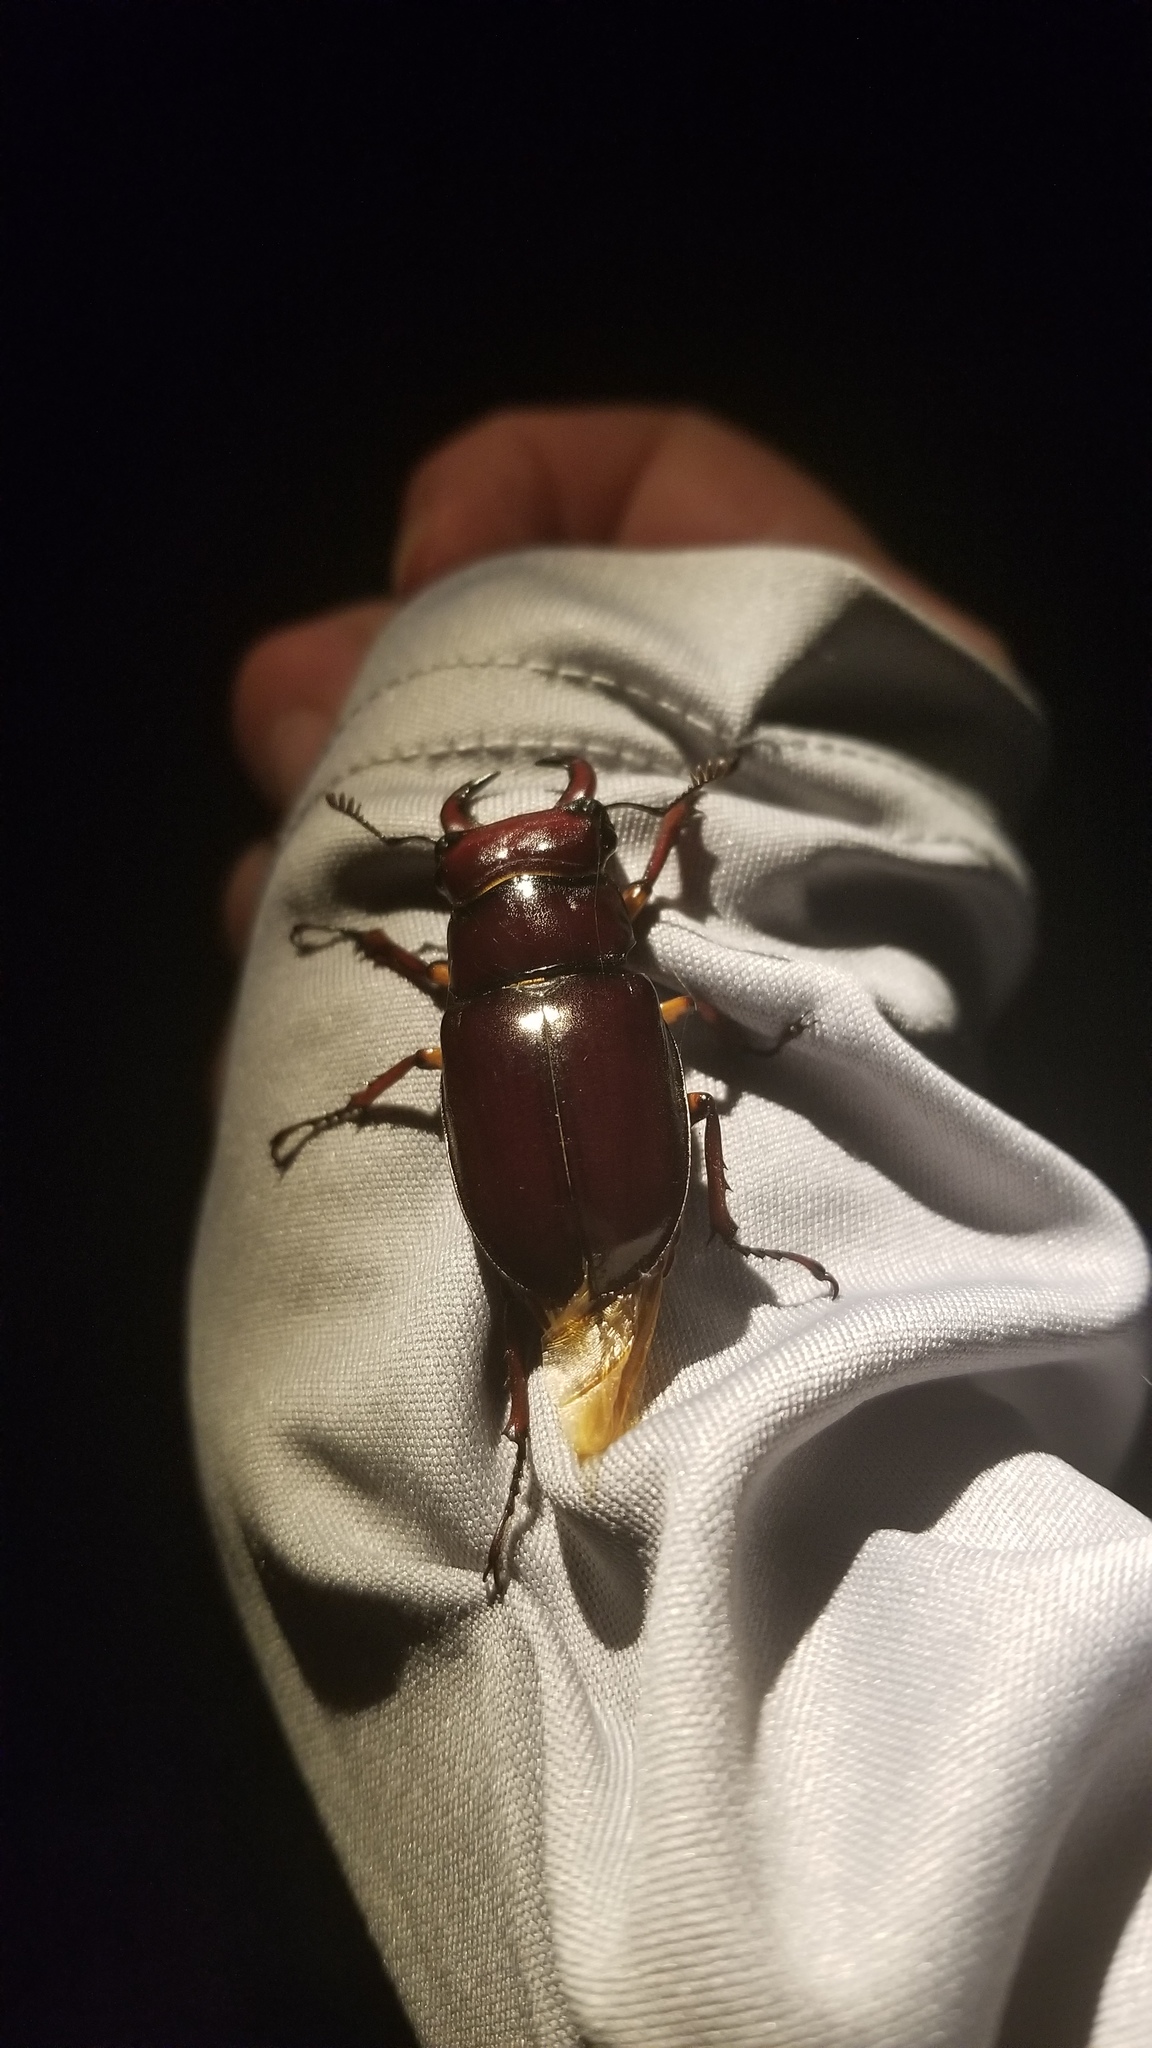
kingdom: Animalia
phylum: Arthropoda
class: Insecta
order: Coleoptera
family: Lucanidae
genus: Lucanus
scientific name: Lucanus capreolus
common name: Stag beetle
